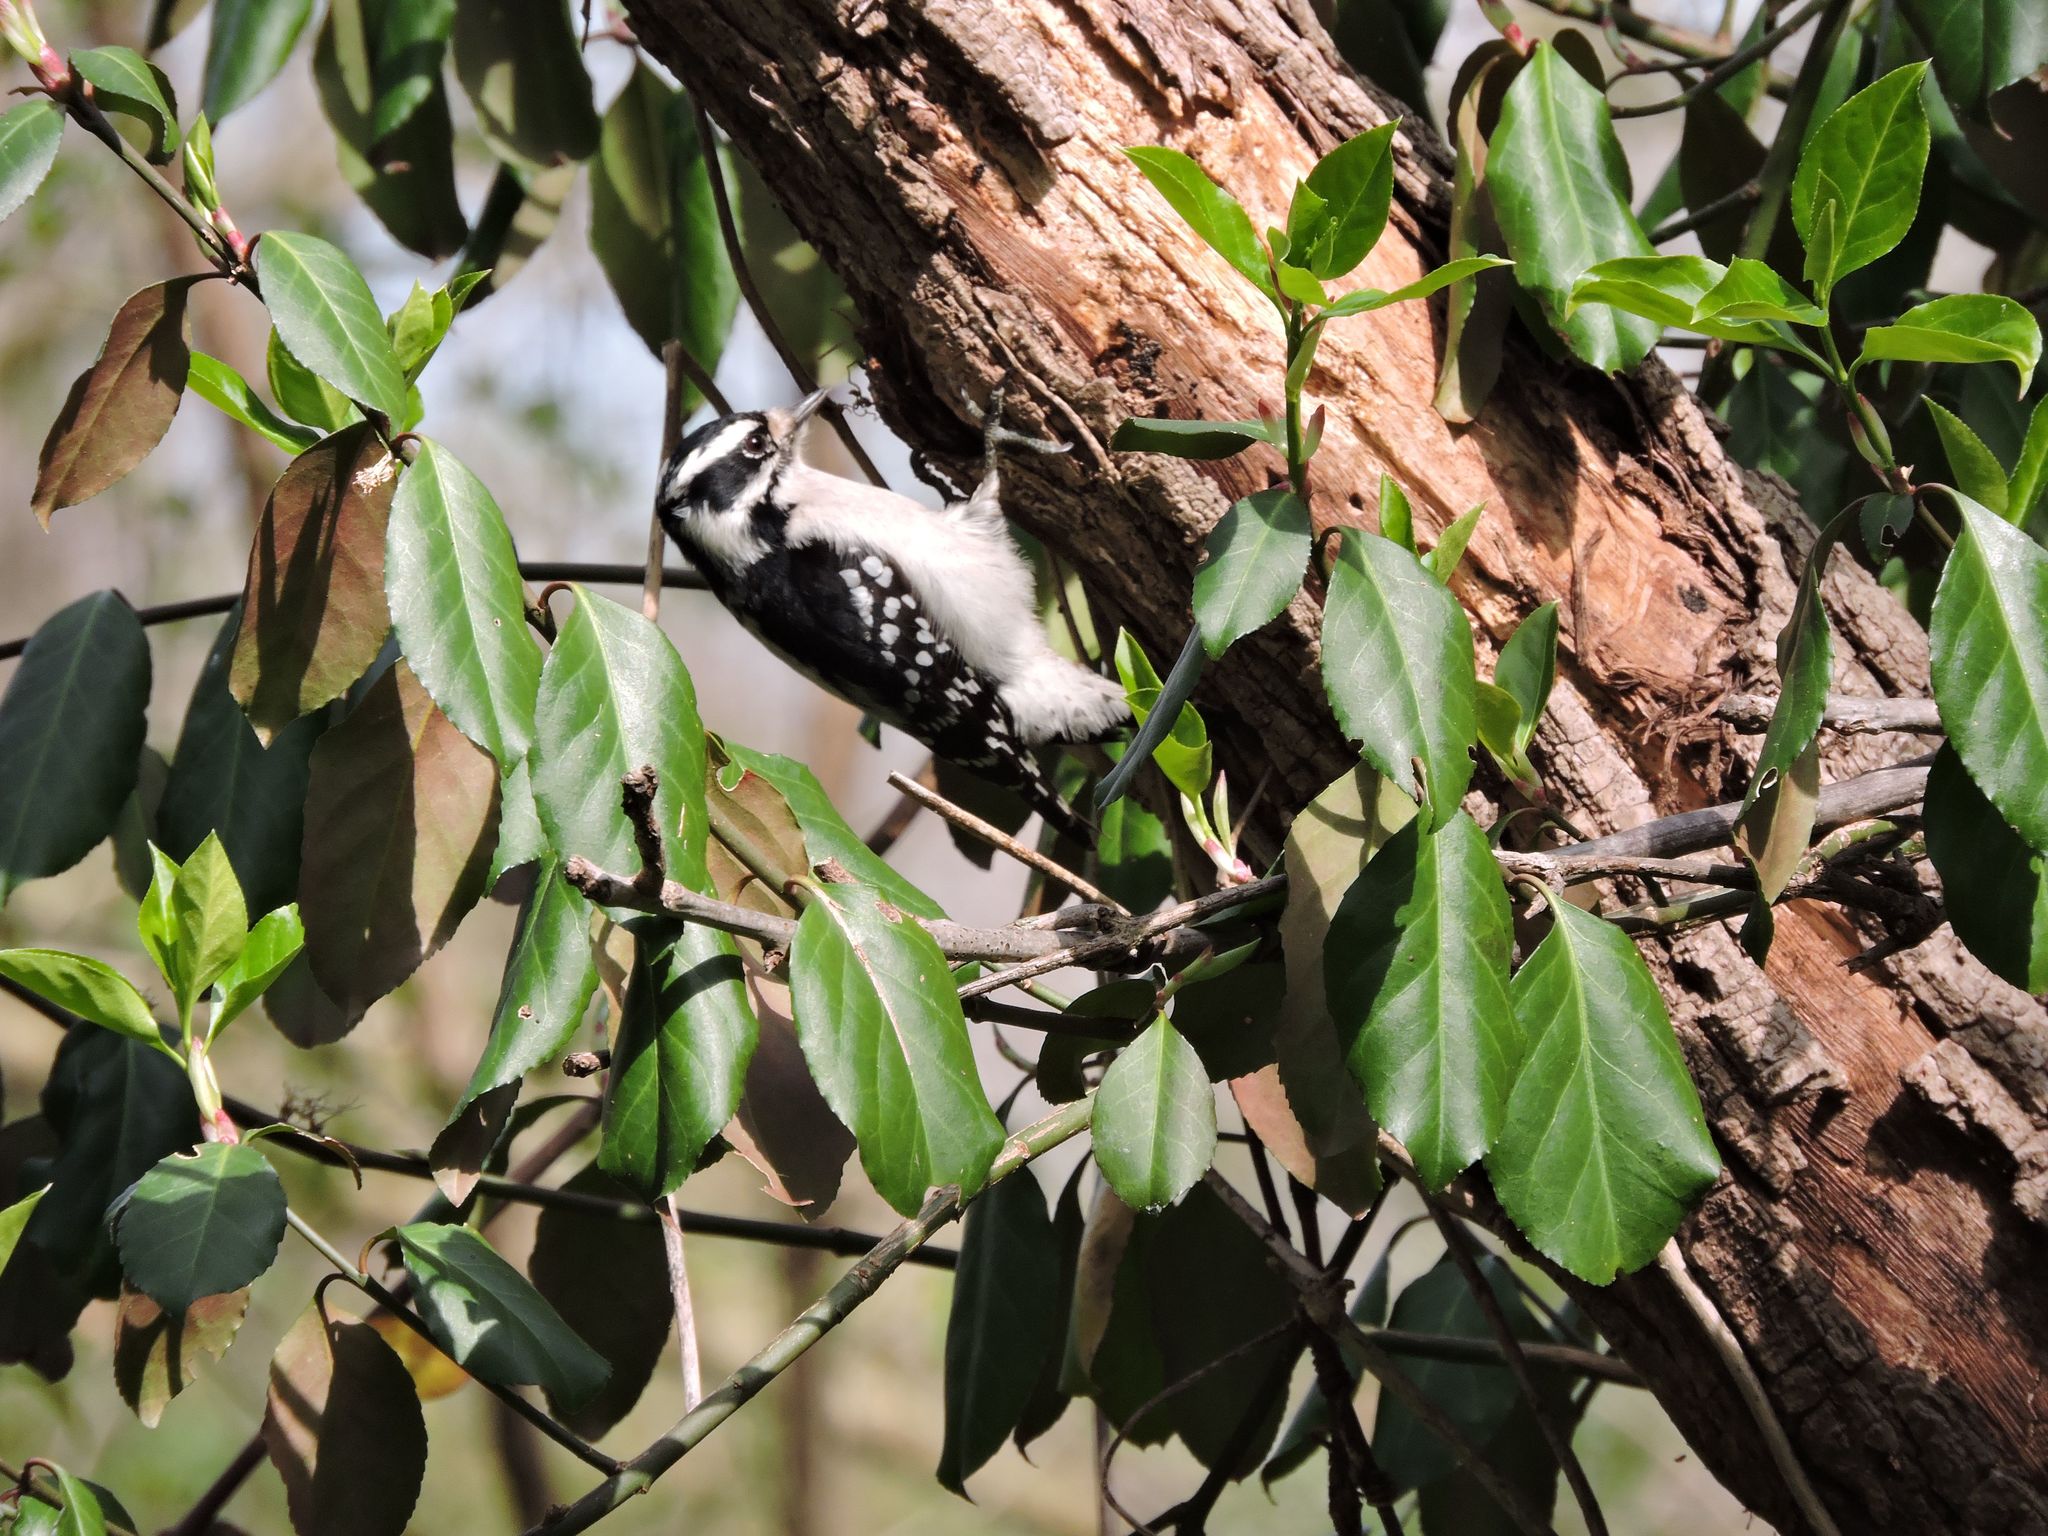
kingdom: Animalia
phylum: Chordata
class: Aves
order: Piciformes
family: Picidae
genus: Dryobates
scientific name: Dryobates pubescens
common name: Downy woodpecker
